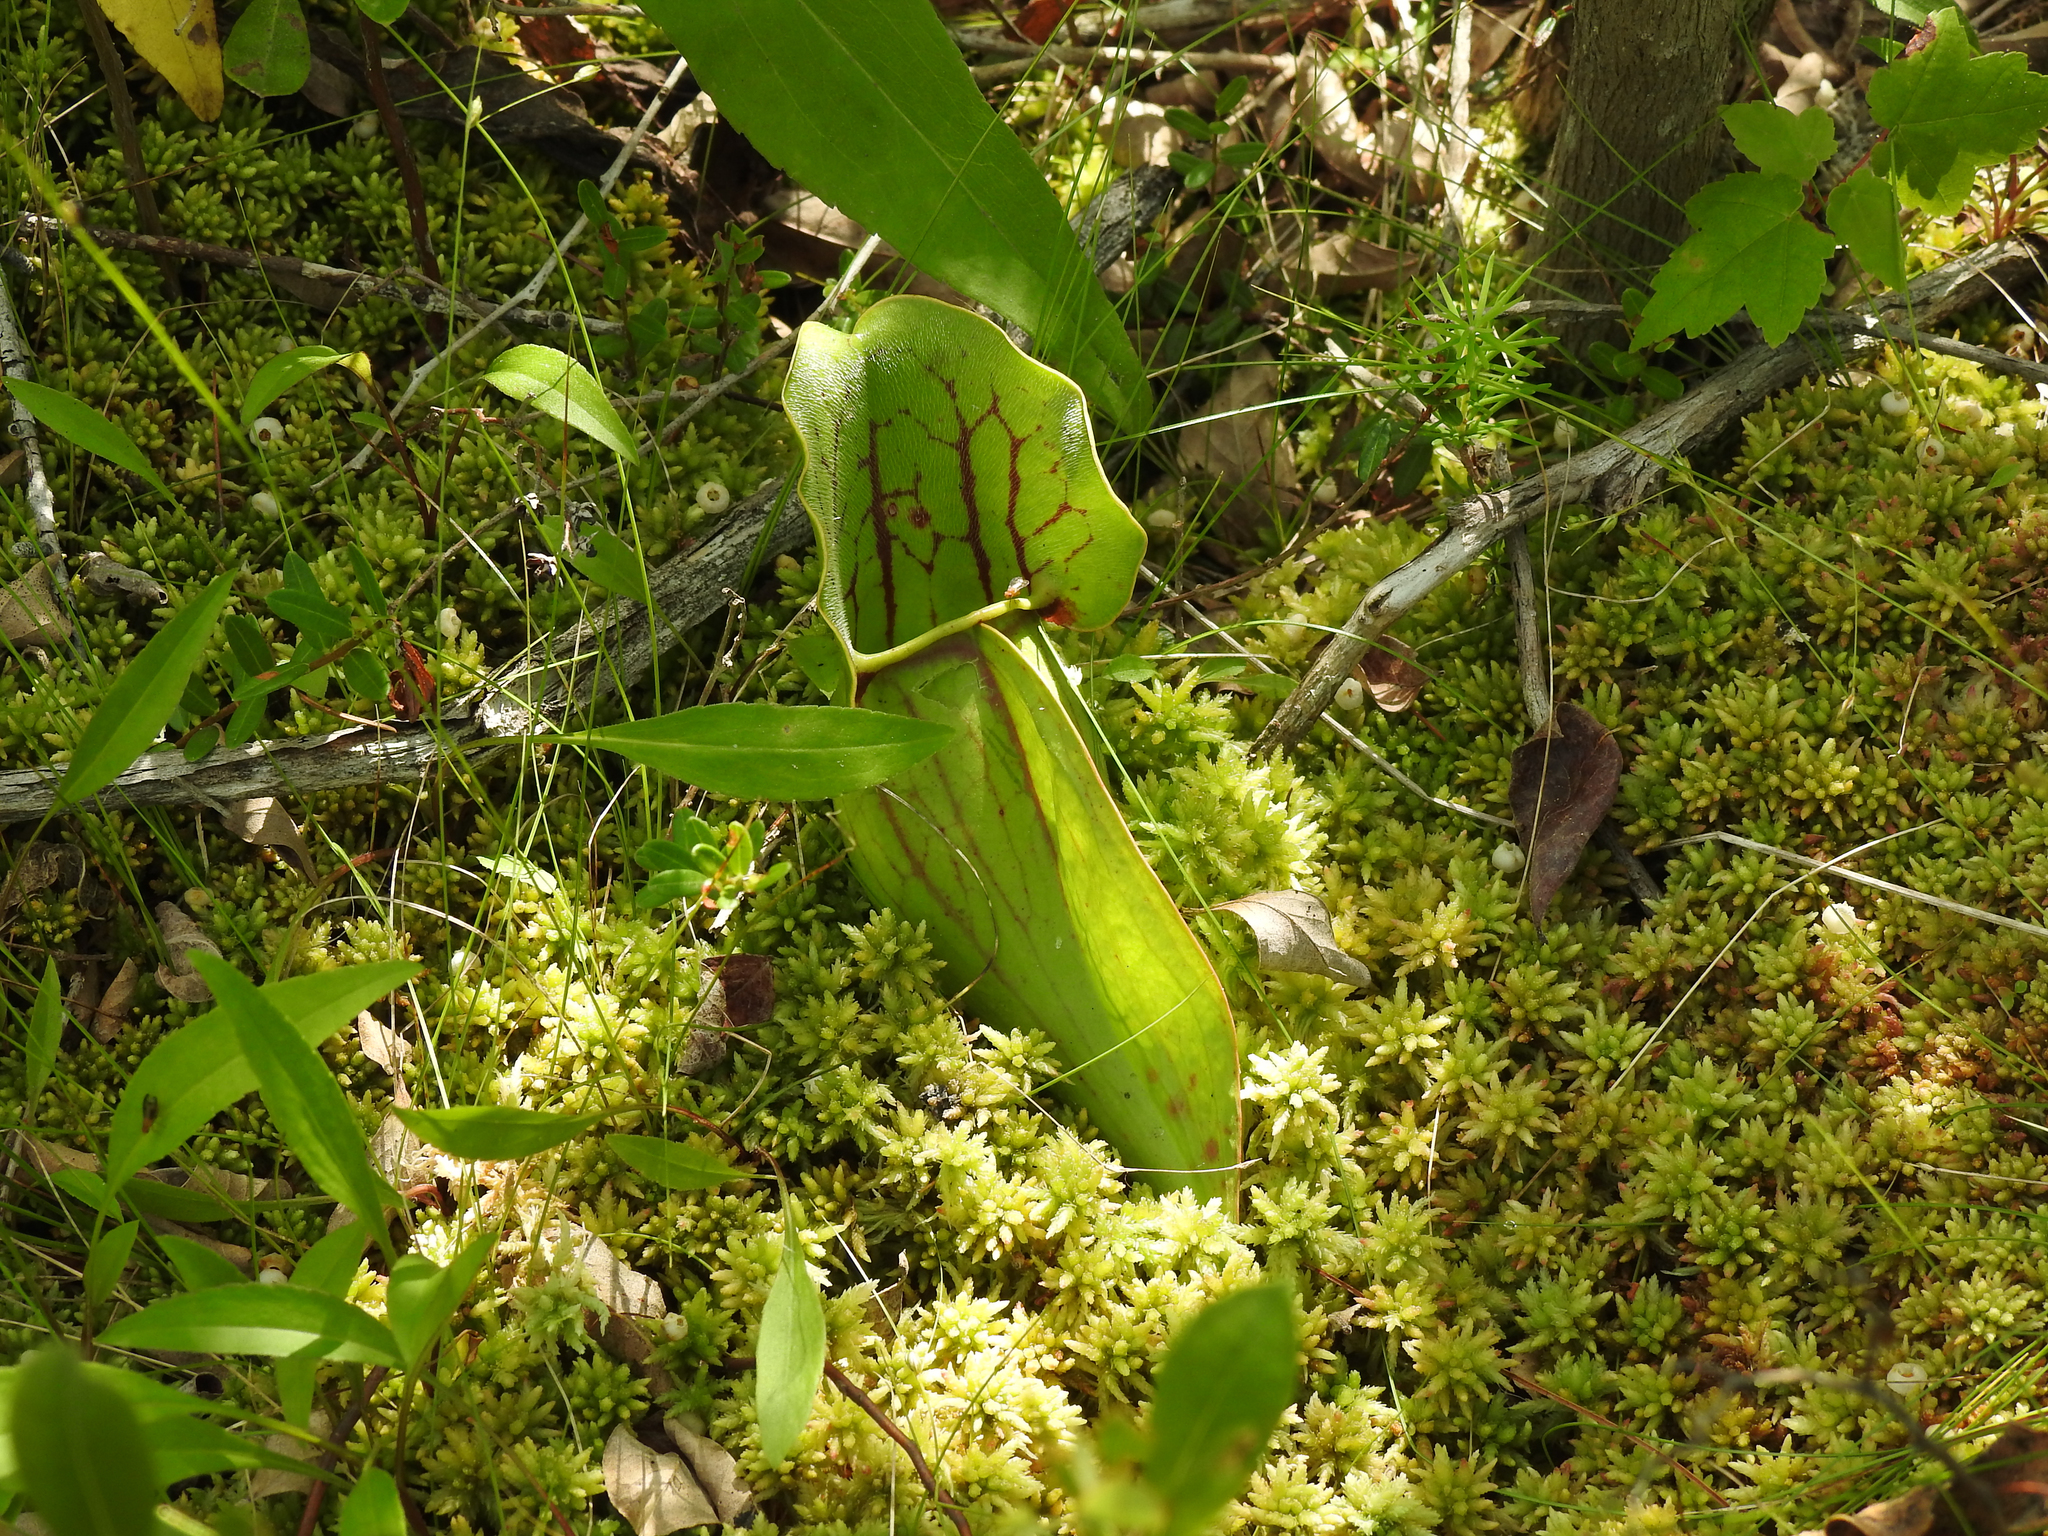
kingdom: Plantae
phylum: Tracheophyta
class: Magnoliopsida
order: Ericales
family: Sarraceniaceae
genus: Sarracenia
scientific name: Sarracenia purpurea
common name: Pitcherplant
